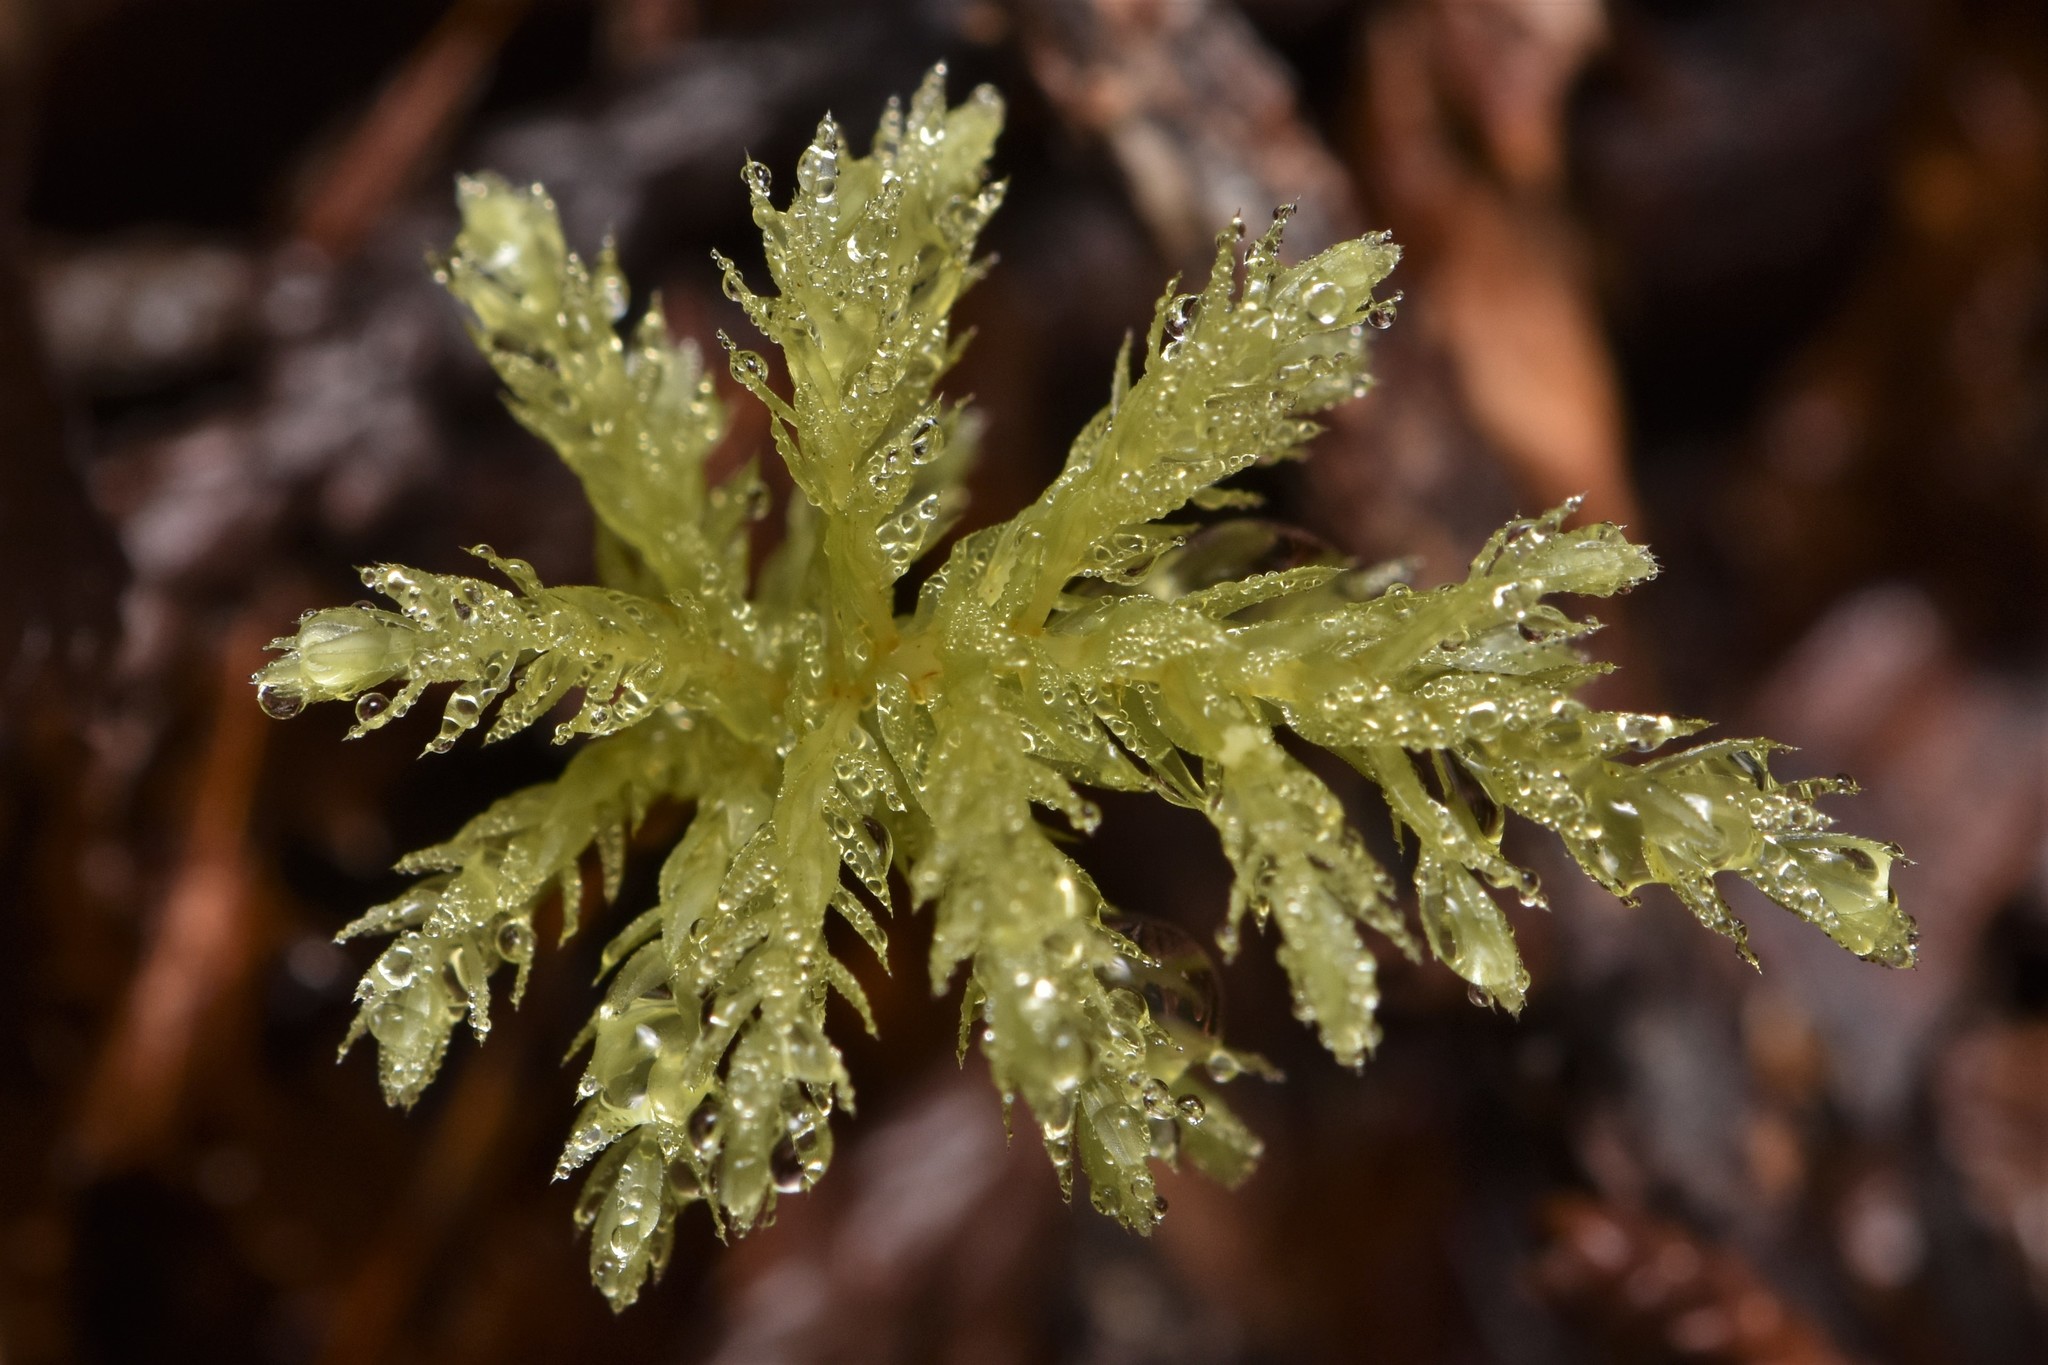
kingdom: Plantae
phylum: Bryophyta
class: Bryopsida
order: Bryales
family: Mniaceae
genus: Leucolepis
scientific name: Leucolepis acanthoneura
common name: Leucolepis umbrella moss
